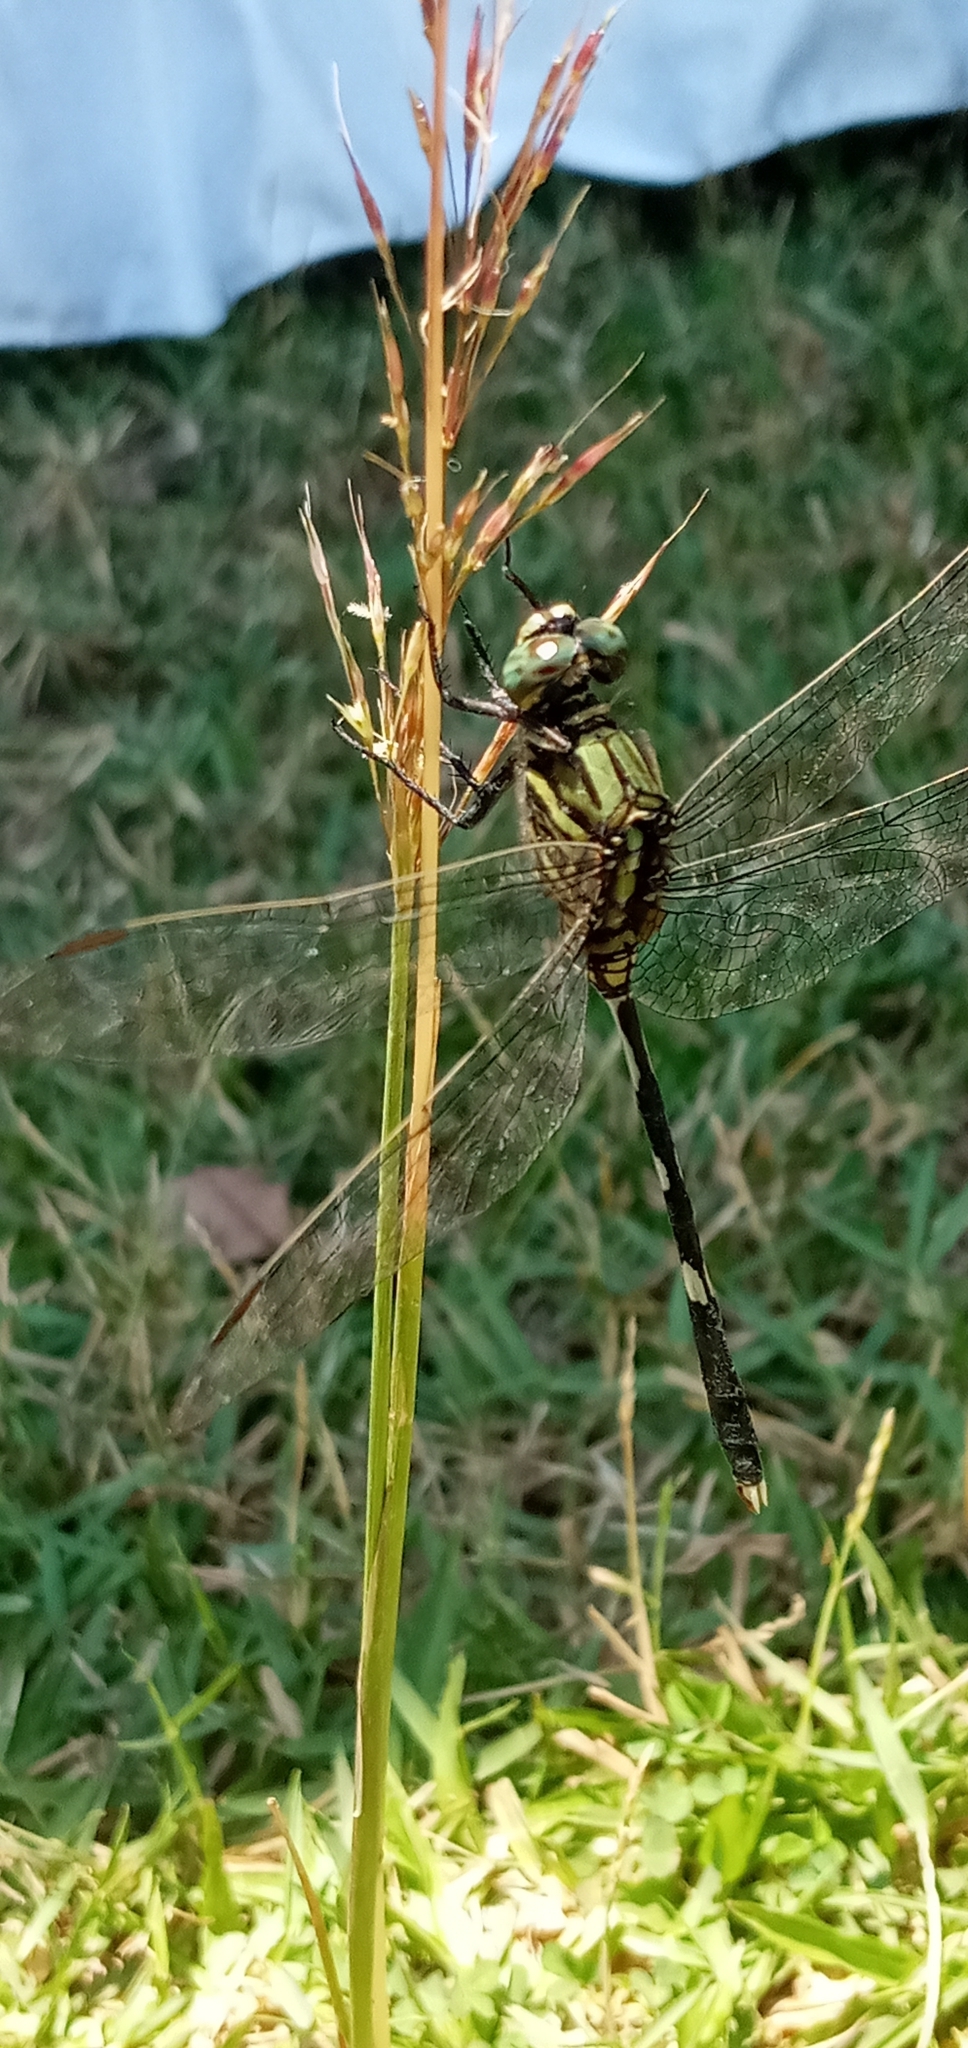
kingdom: Animalia
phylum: Arthropoda
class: Insecta
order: Odonata
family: Libellulidae
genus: Orthetrum
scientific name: Orthetrum sabina
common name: Slender skimmer
